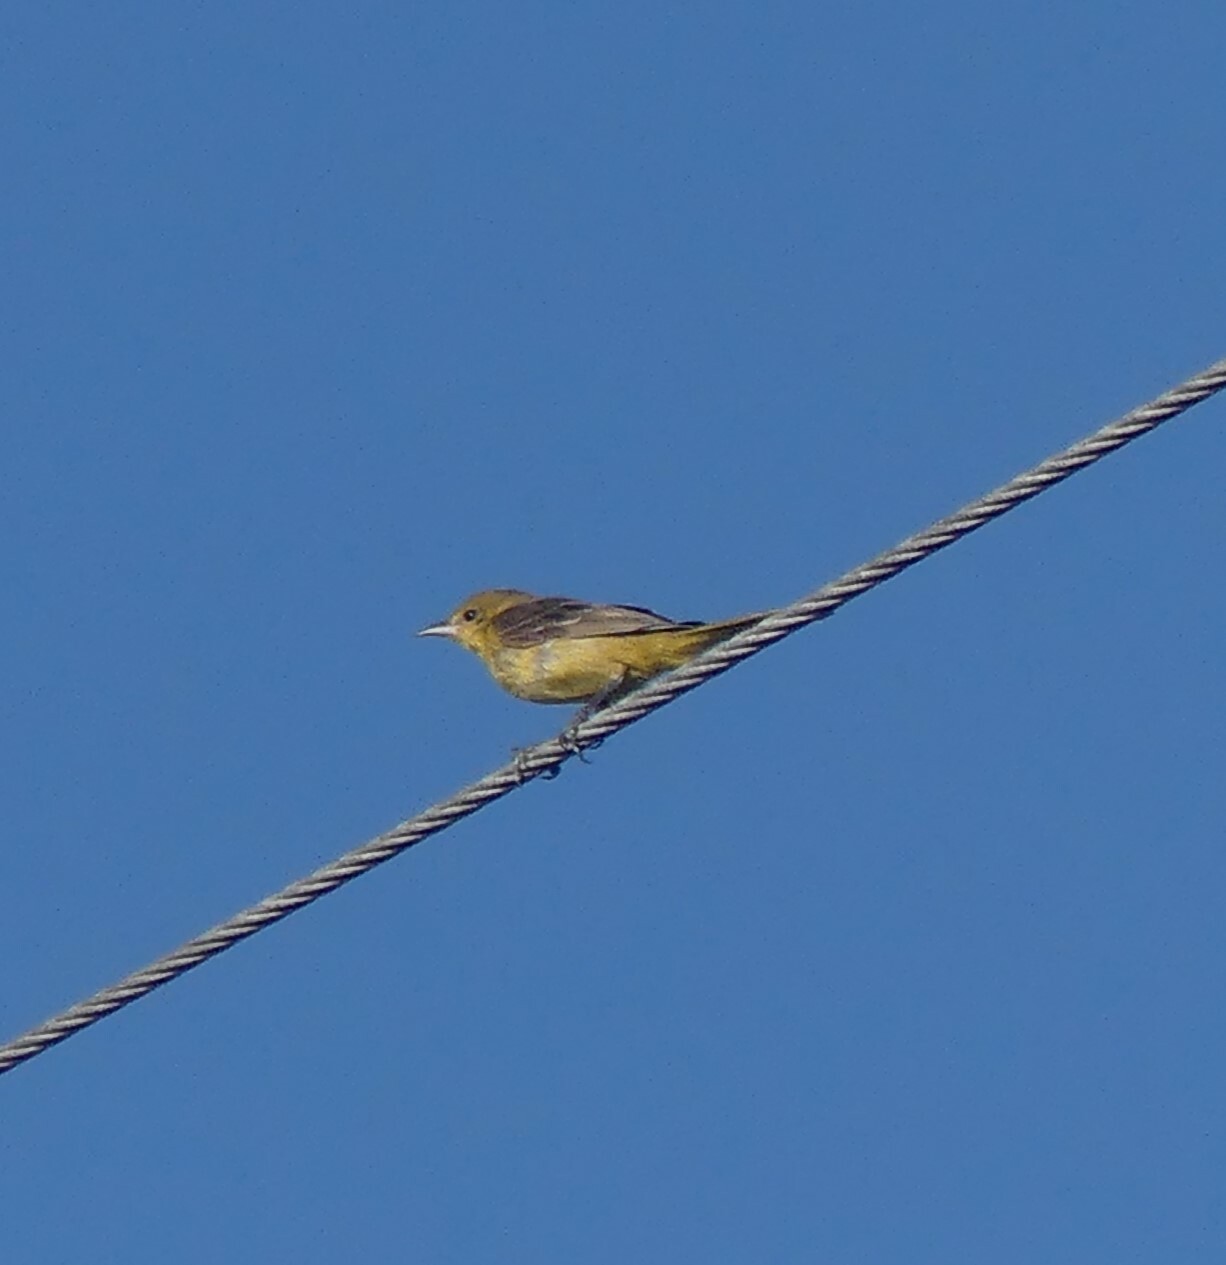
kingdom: Animalia
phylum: Chordata
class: Aves
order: Passeriformes
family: Icteridae
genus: Icterus
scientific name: Icterus spurius
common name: Orchard oriole
